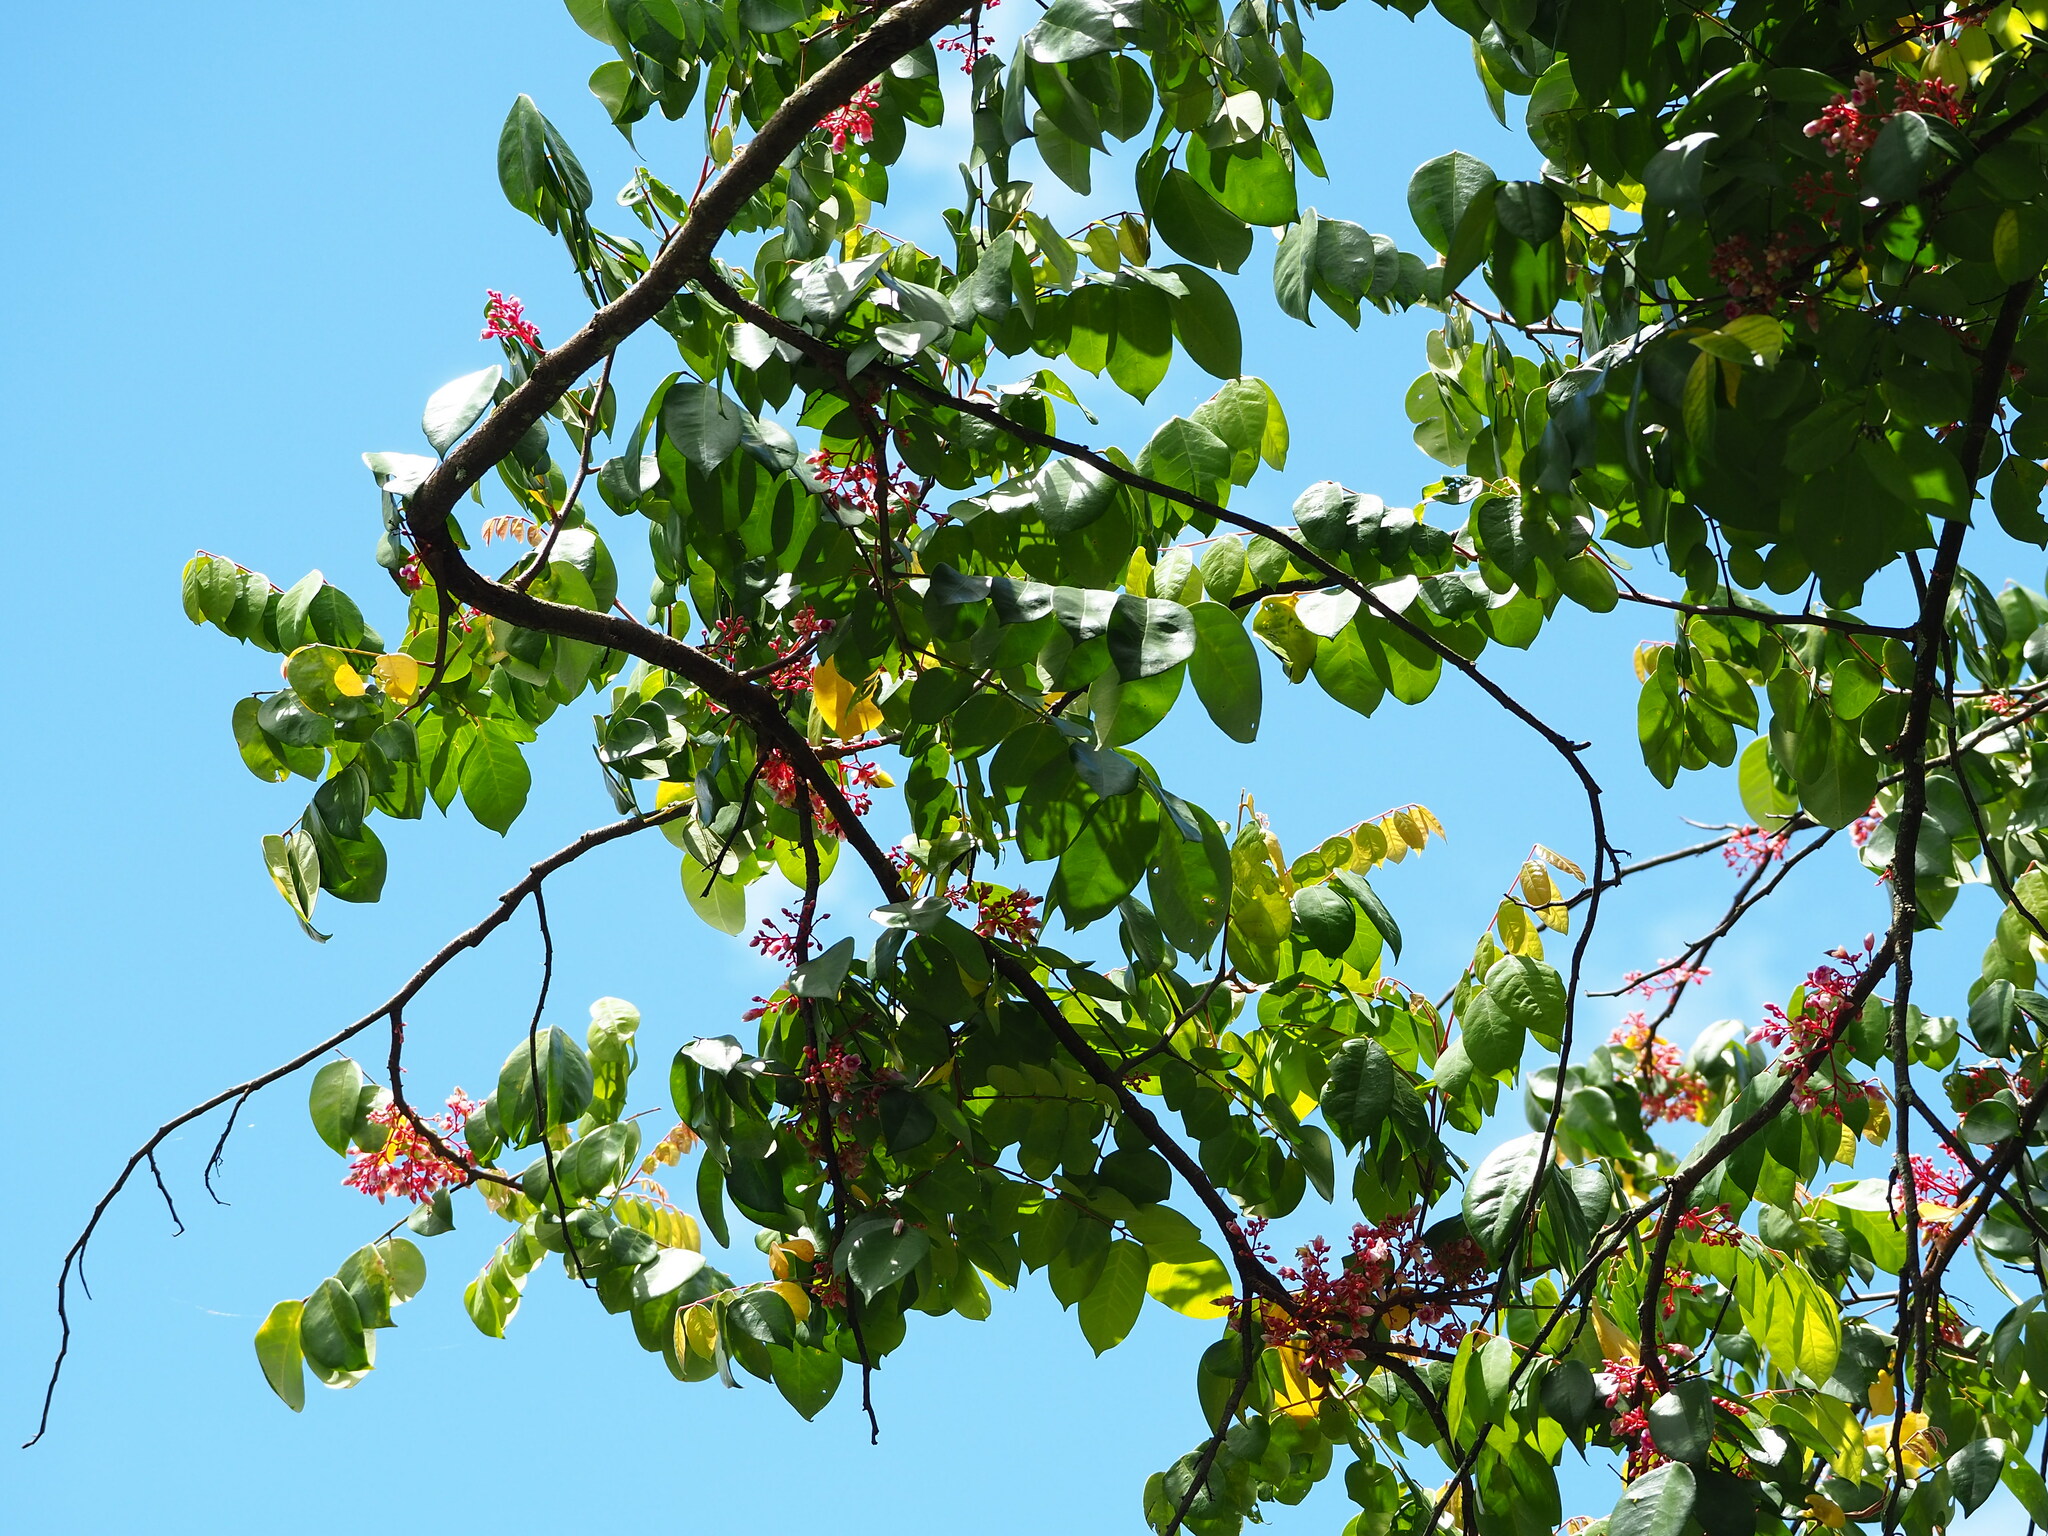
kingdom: Plantae
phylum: Tracheophyta
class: Magnoliopsida
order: Oxalidales
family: Oxalidaceae
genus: Averrhoa
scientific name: Averrhoa carambola
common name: Blimbing
